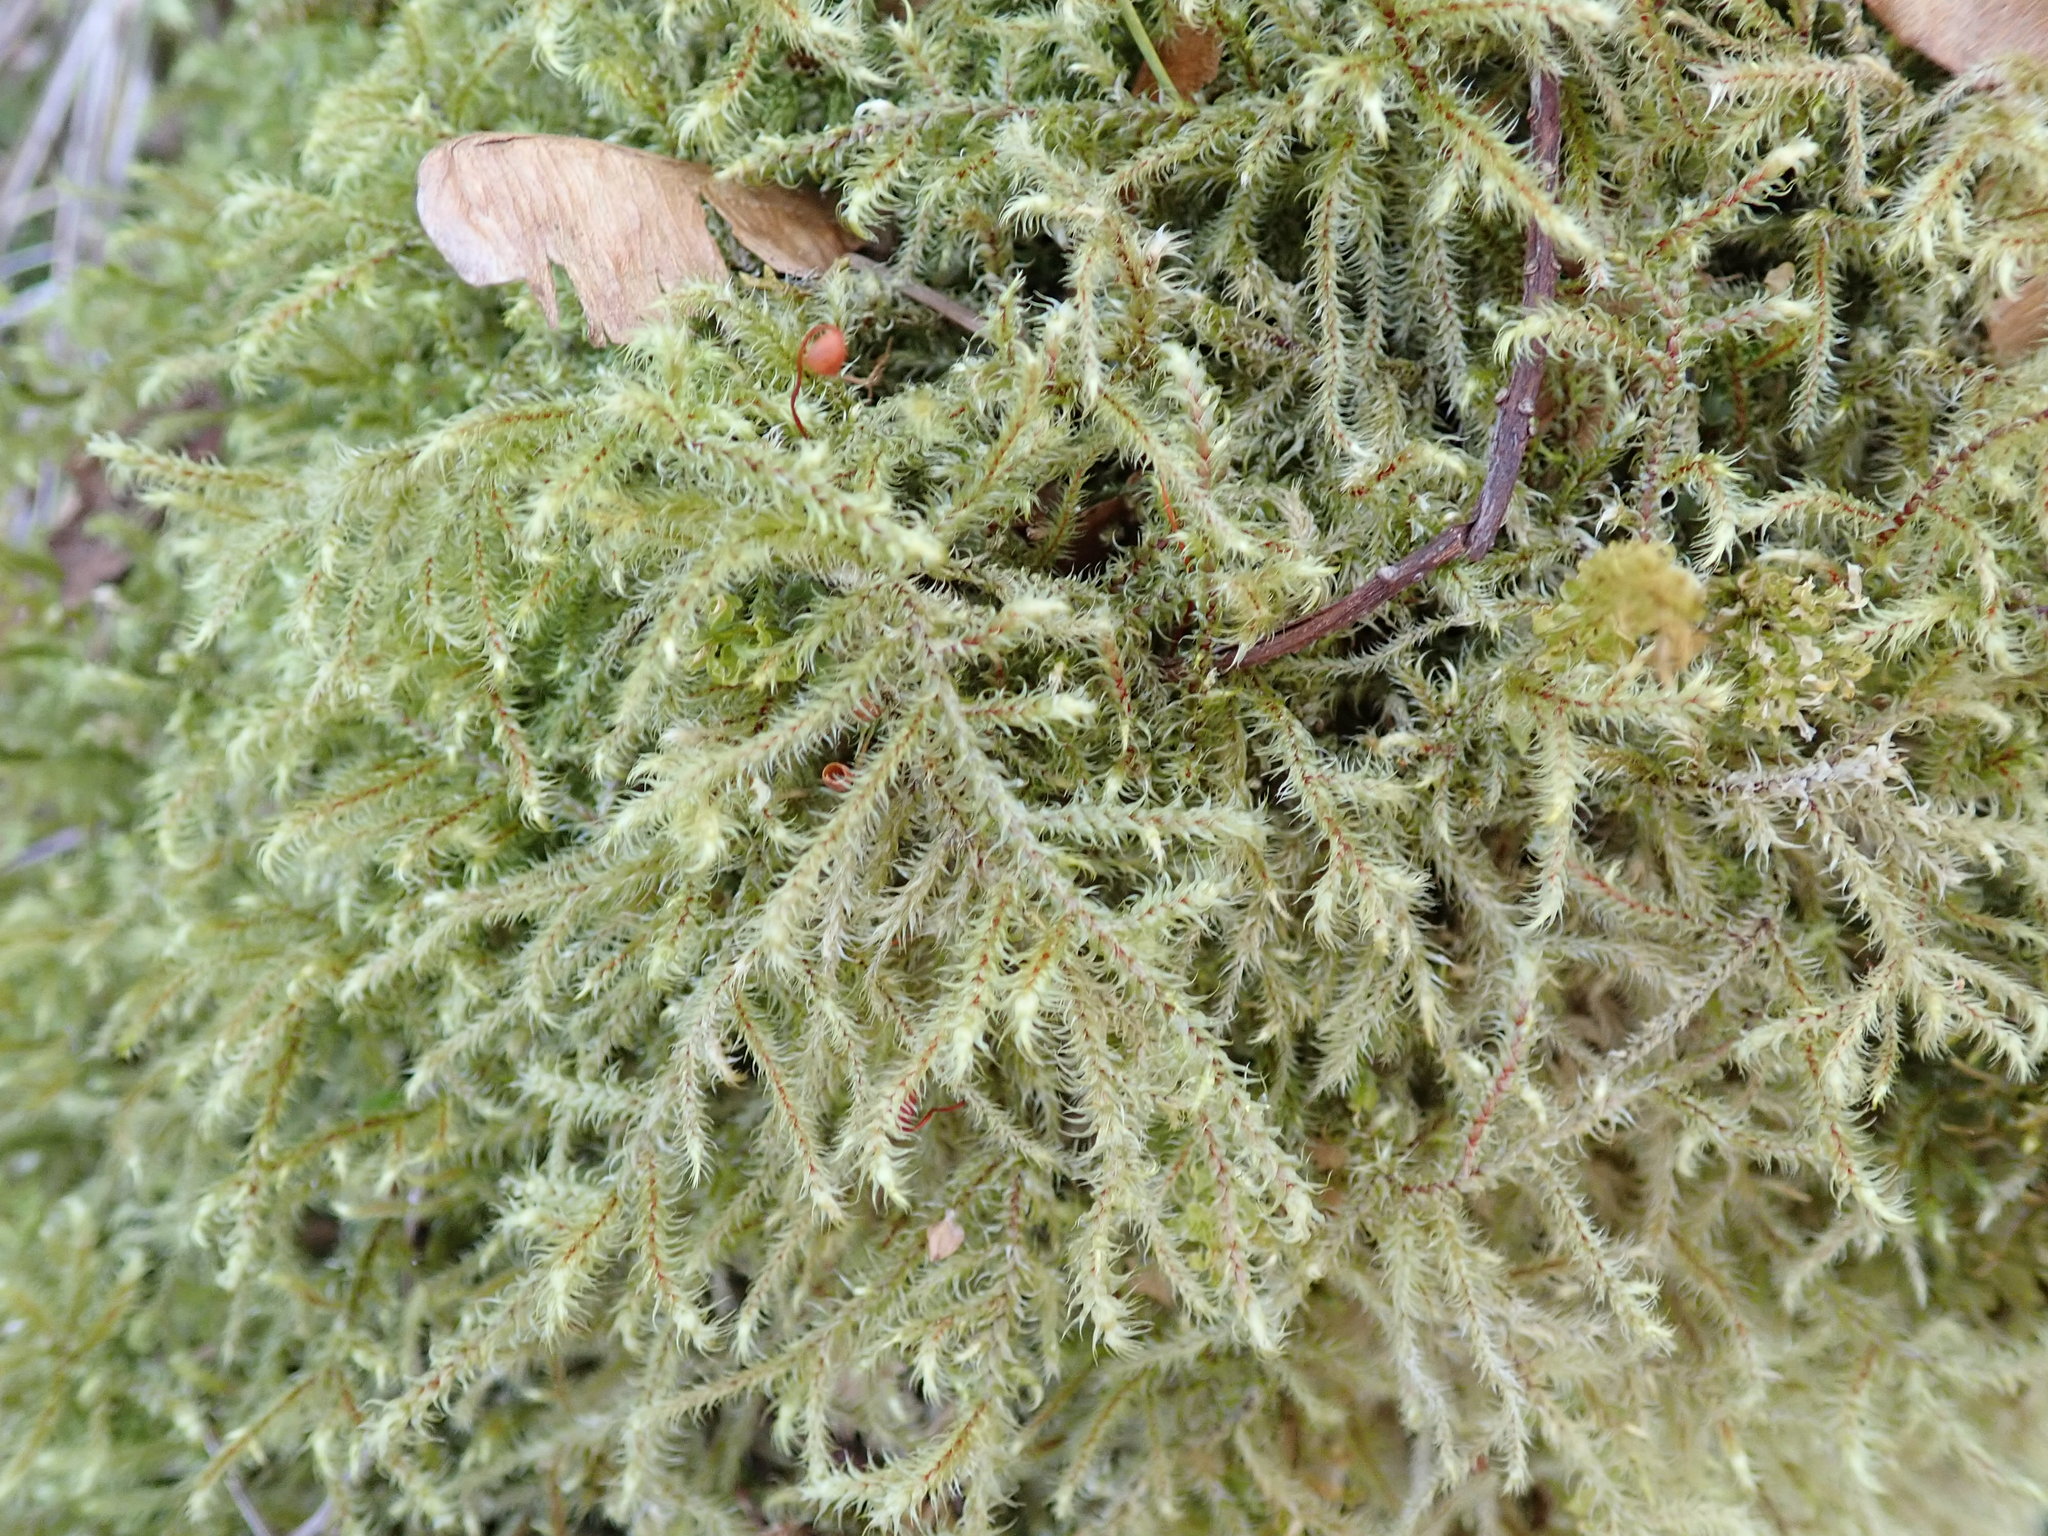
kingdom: Plantae
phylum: Bryophyta
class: Bryopsida
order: Hypnales
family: Hylocomiaceae
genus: Rhytidiadelphus
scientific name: Rhytidiadelphus loreus
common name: Lanky moss
